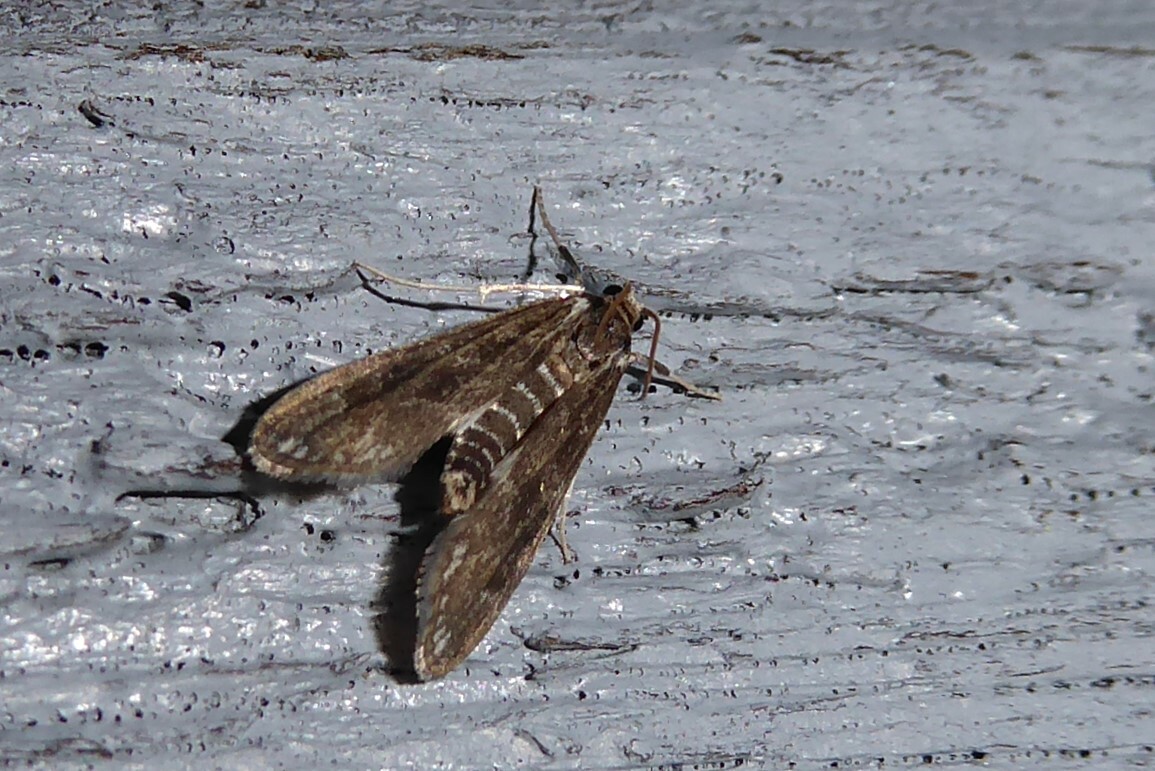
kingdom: Animalia
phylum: Arthropoda
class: Insecta
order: Lepidoptera
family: Crambidae
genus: Hygraula
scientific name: Hygraula nitens
